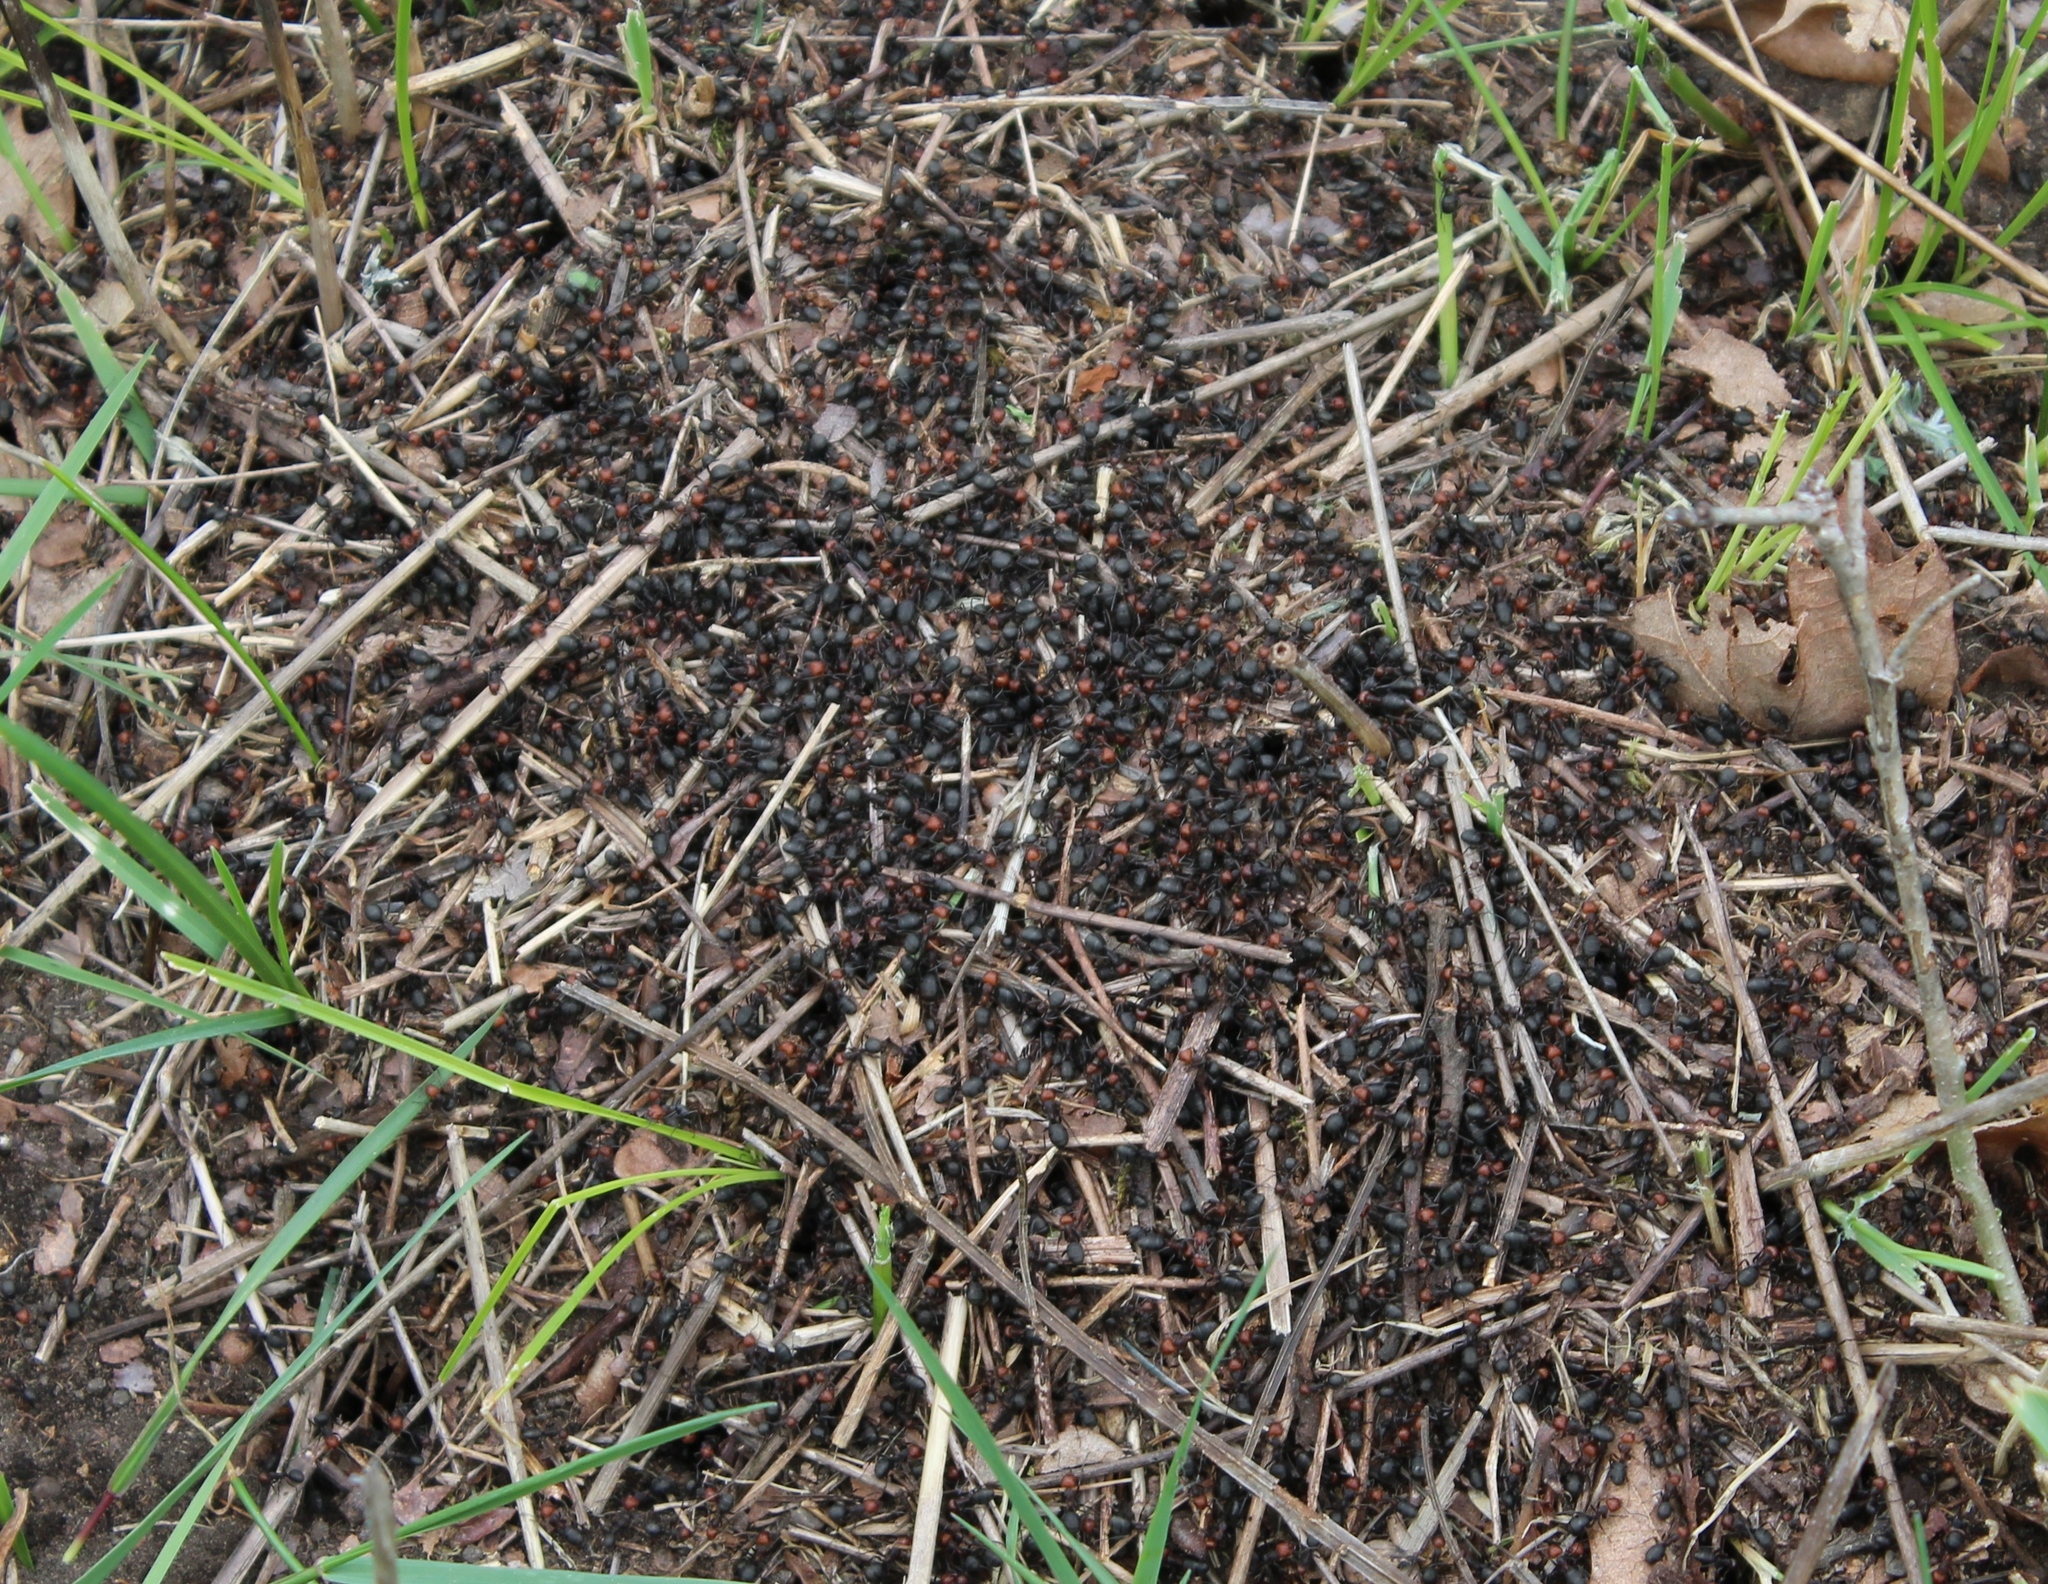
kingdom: Animalia
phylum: Arthropoda
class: Insecta
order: Hymenoptera
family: Formicidae
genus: Formica
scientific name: Formica obscuripes
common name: Western thatching ant
